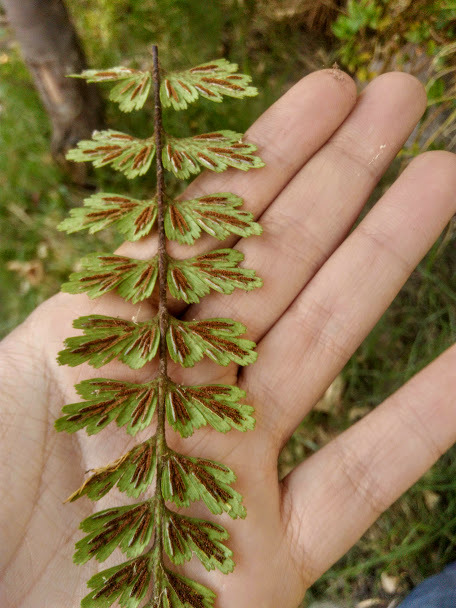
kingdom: Plantae
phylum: Tracheophyta
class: Polypodiopsida
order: Polypodiales
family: Aspleniaceae
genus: Asplenium
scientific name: Asplenium praemorsum
